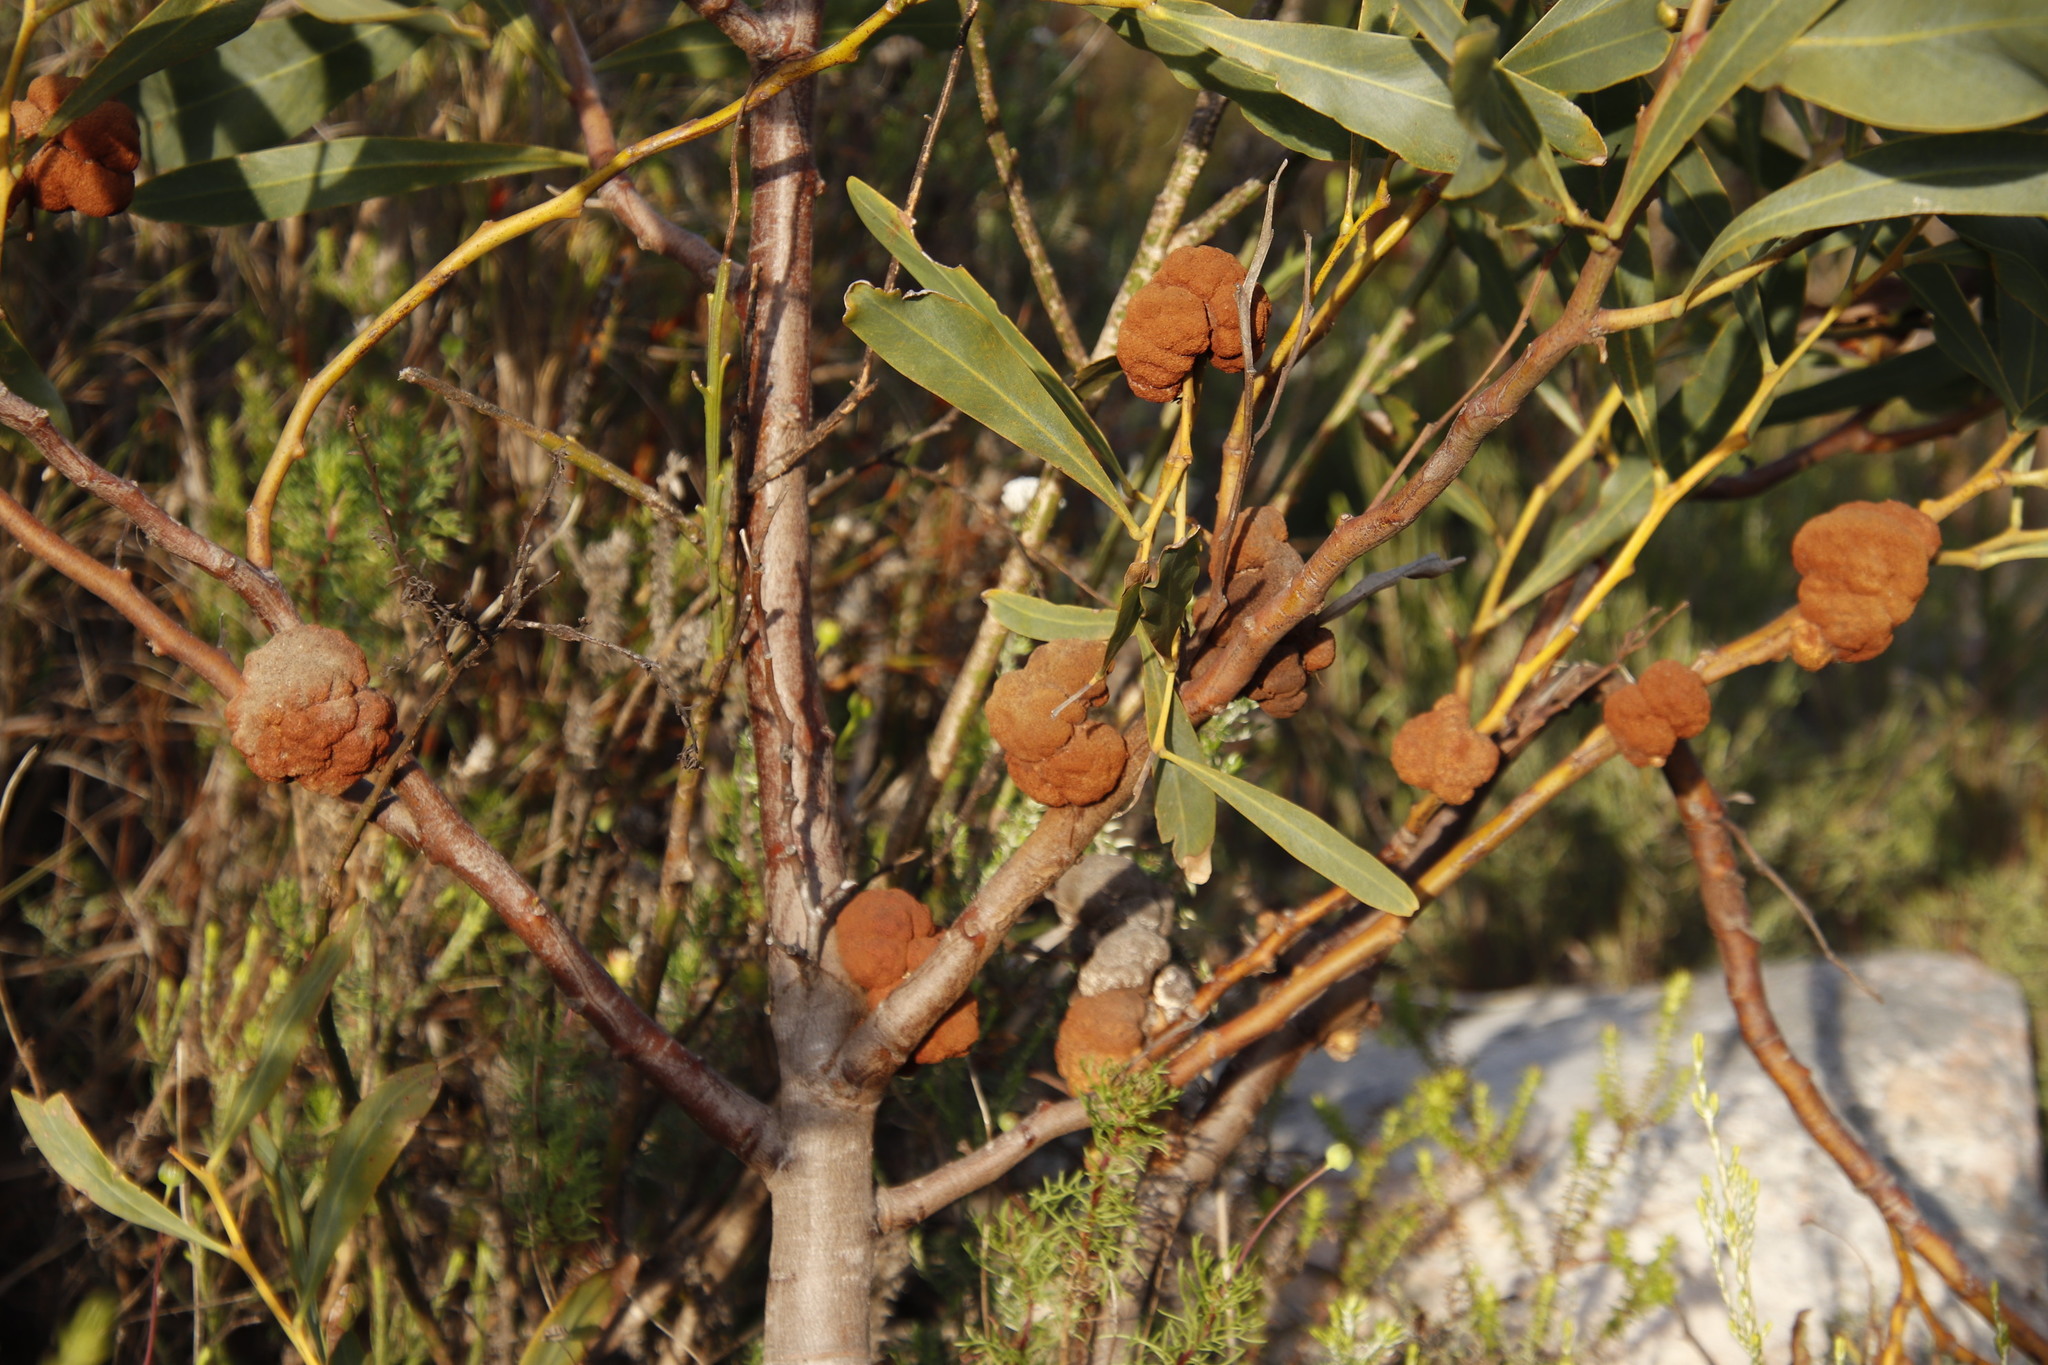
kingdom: Fungi
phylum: Basidiomycota
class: Pucciniomycetes
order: Pucciniales
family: Uromycladiaceae
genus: Uromycladium
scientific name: Uromycladium morrisii
